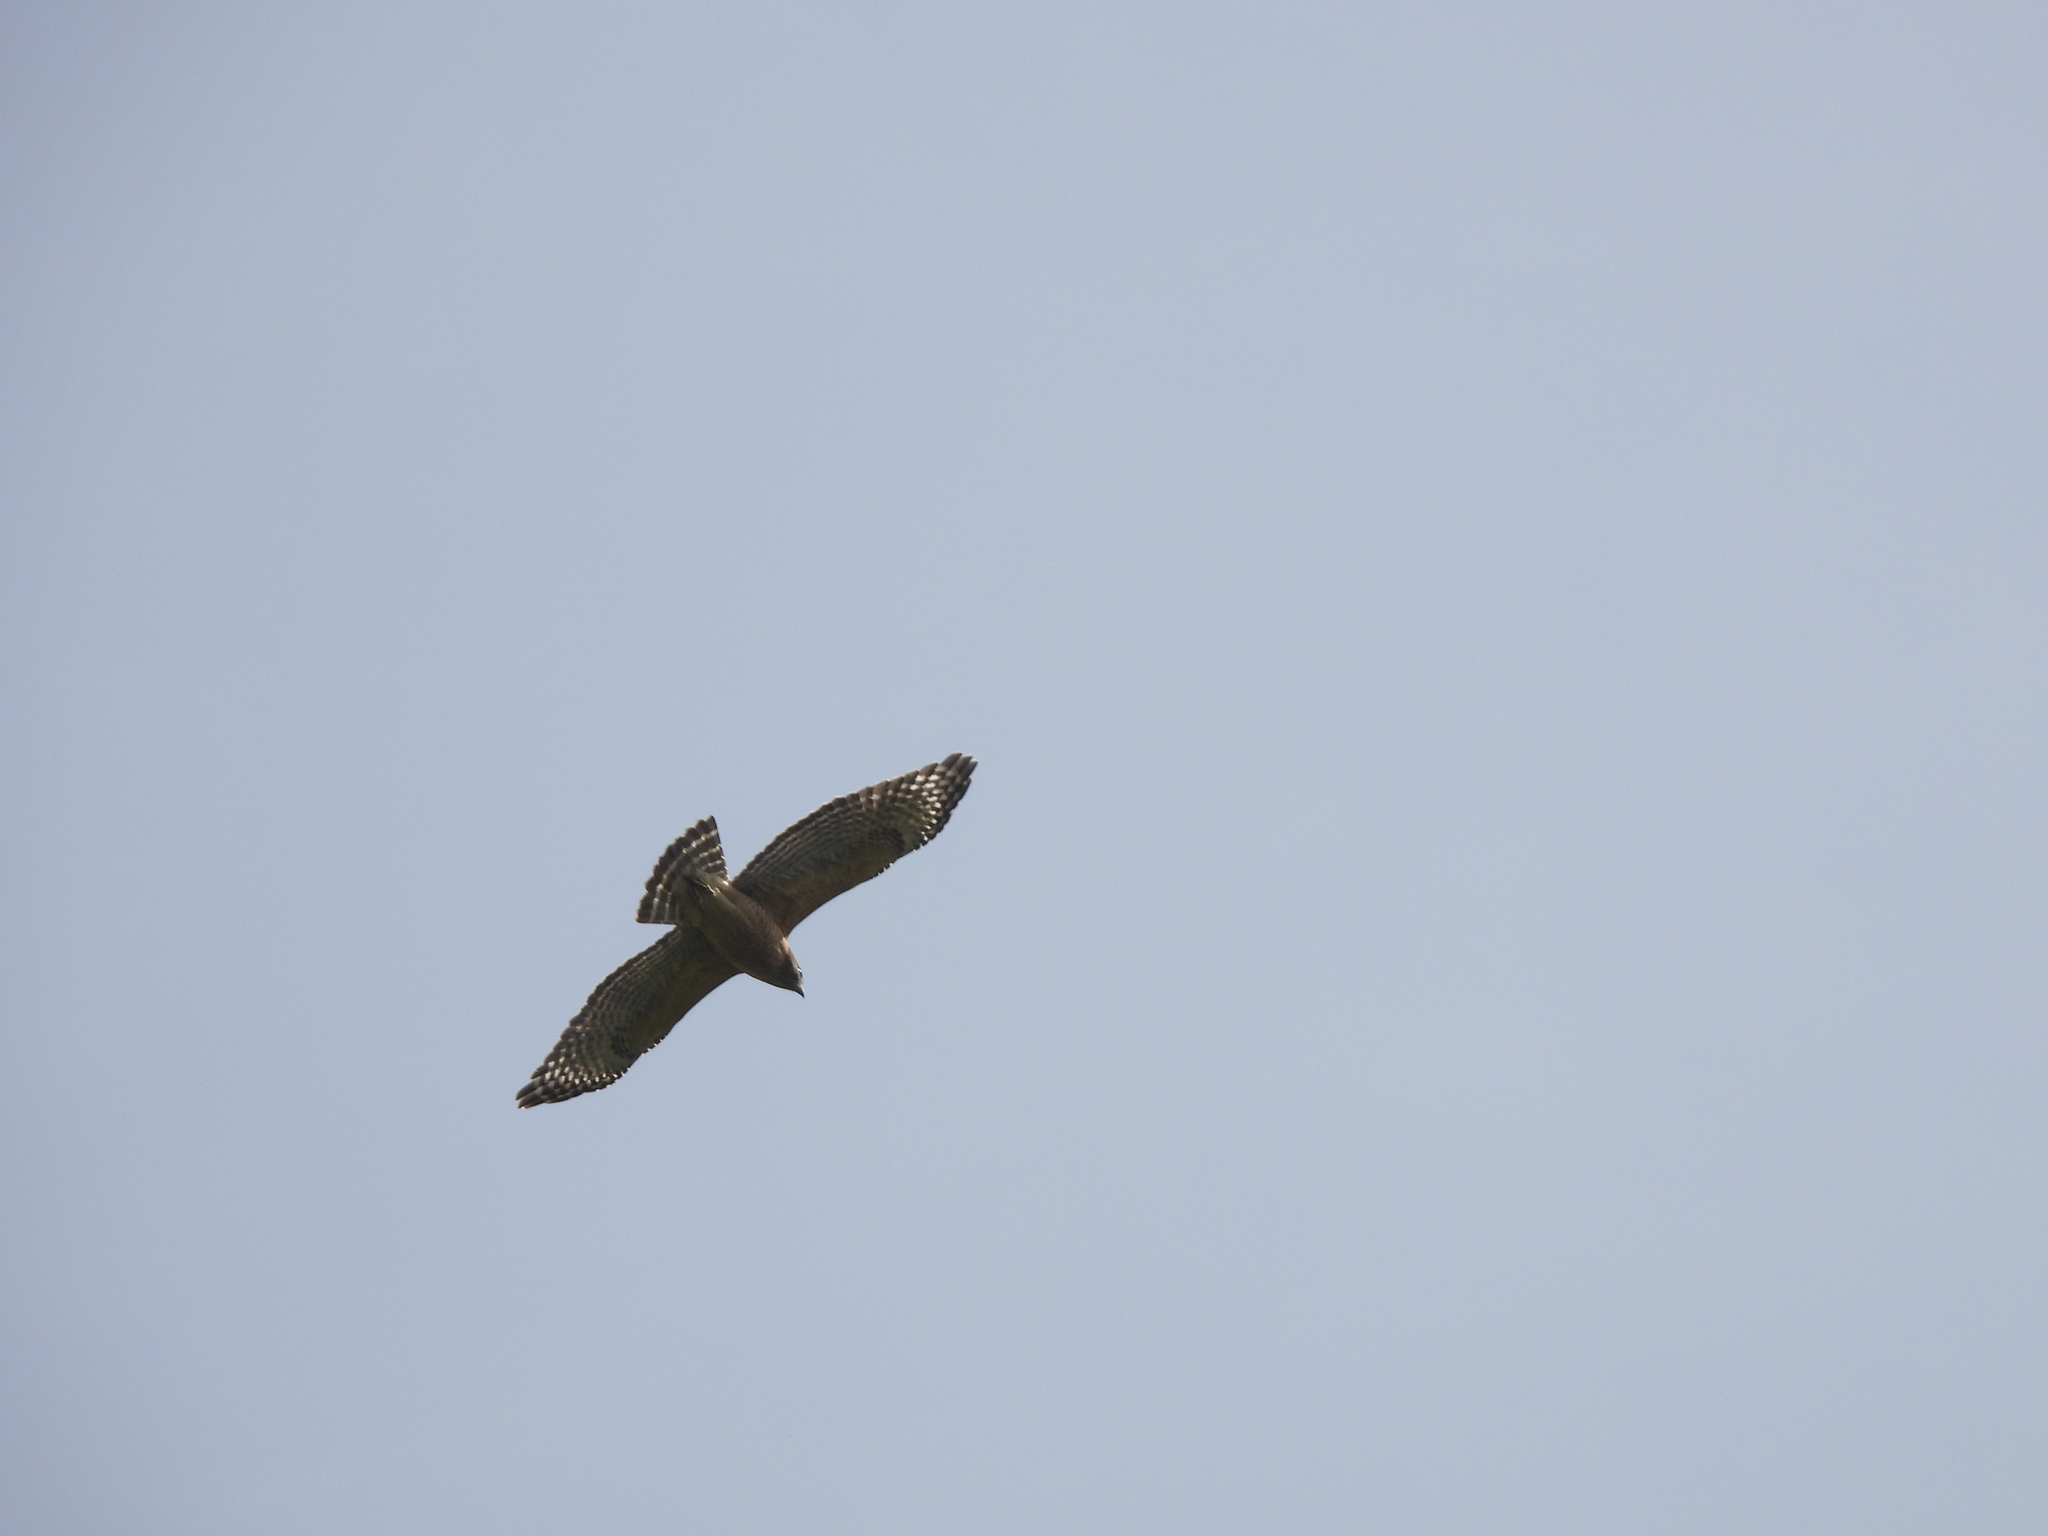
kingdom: Animalia
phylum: Chordata
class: Aves
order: Accipitriformes
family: Accipitridae
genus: Buteo
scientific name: Buteo lineatus
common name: Red-shouldered hawk
